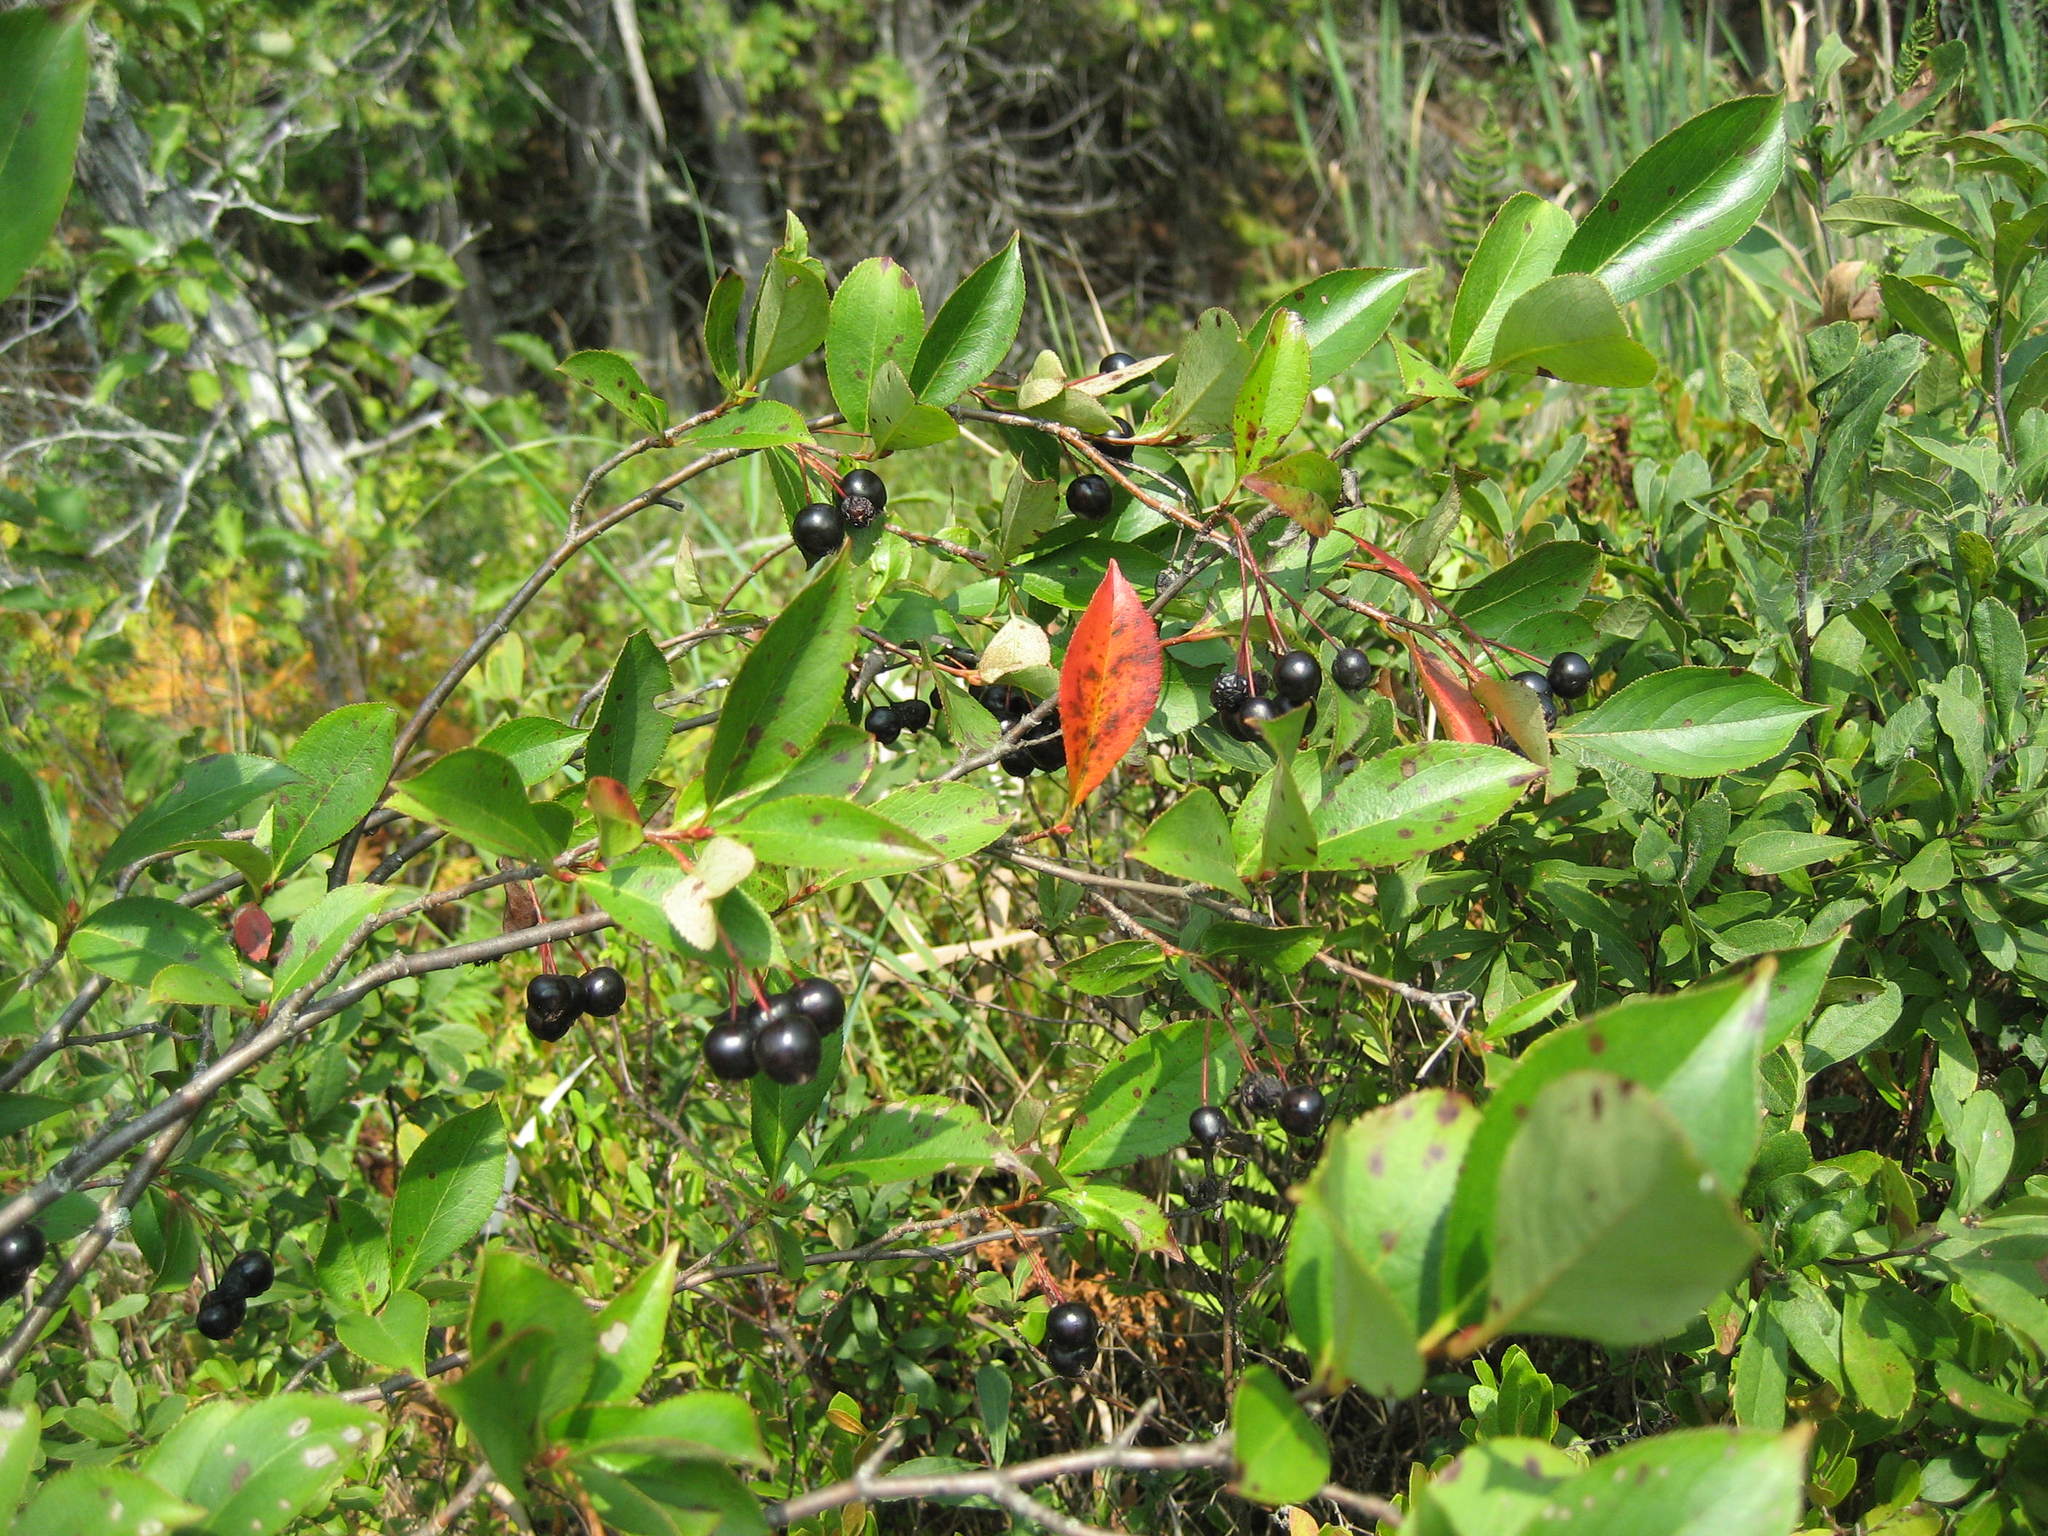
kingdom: Plantae
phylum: Tracheophyta
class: Magnoliopsida
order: Rosales
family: Rosaceae
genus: Aronia
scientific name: Aronia melanocarpa
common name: Black chokeberry
